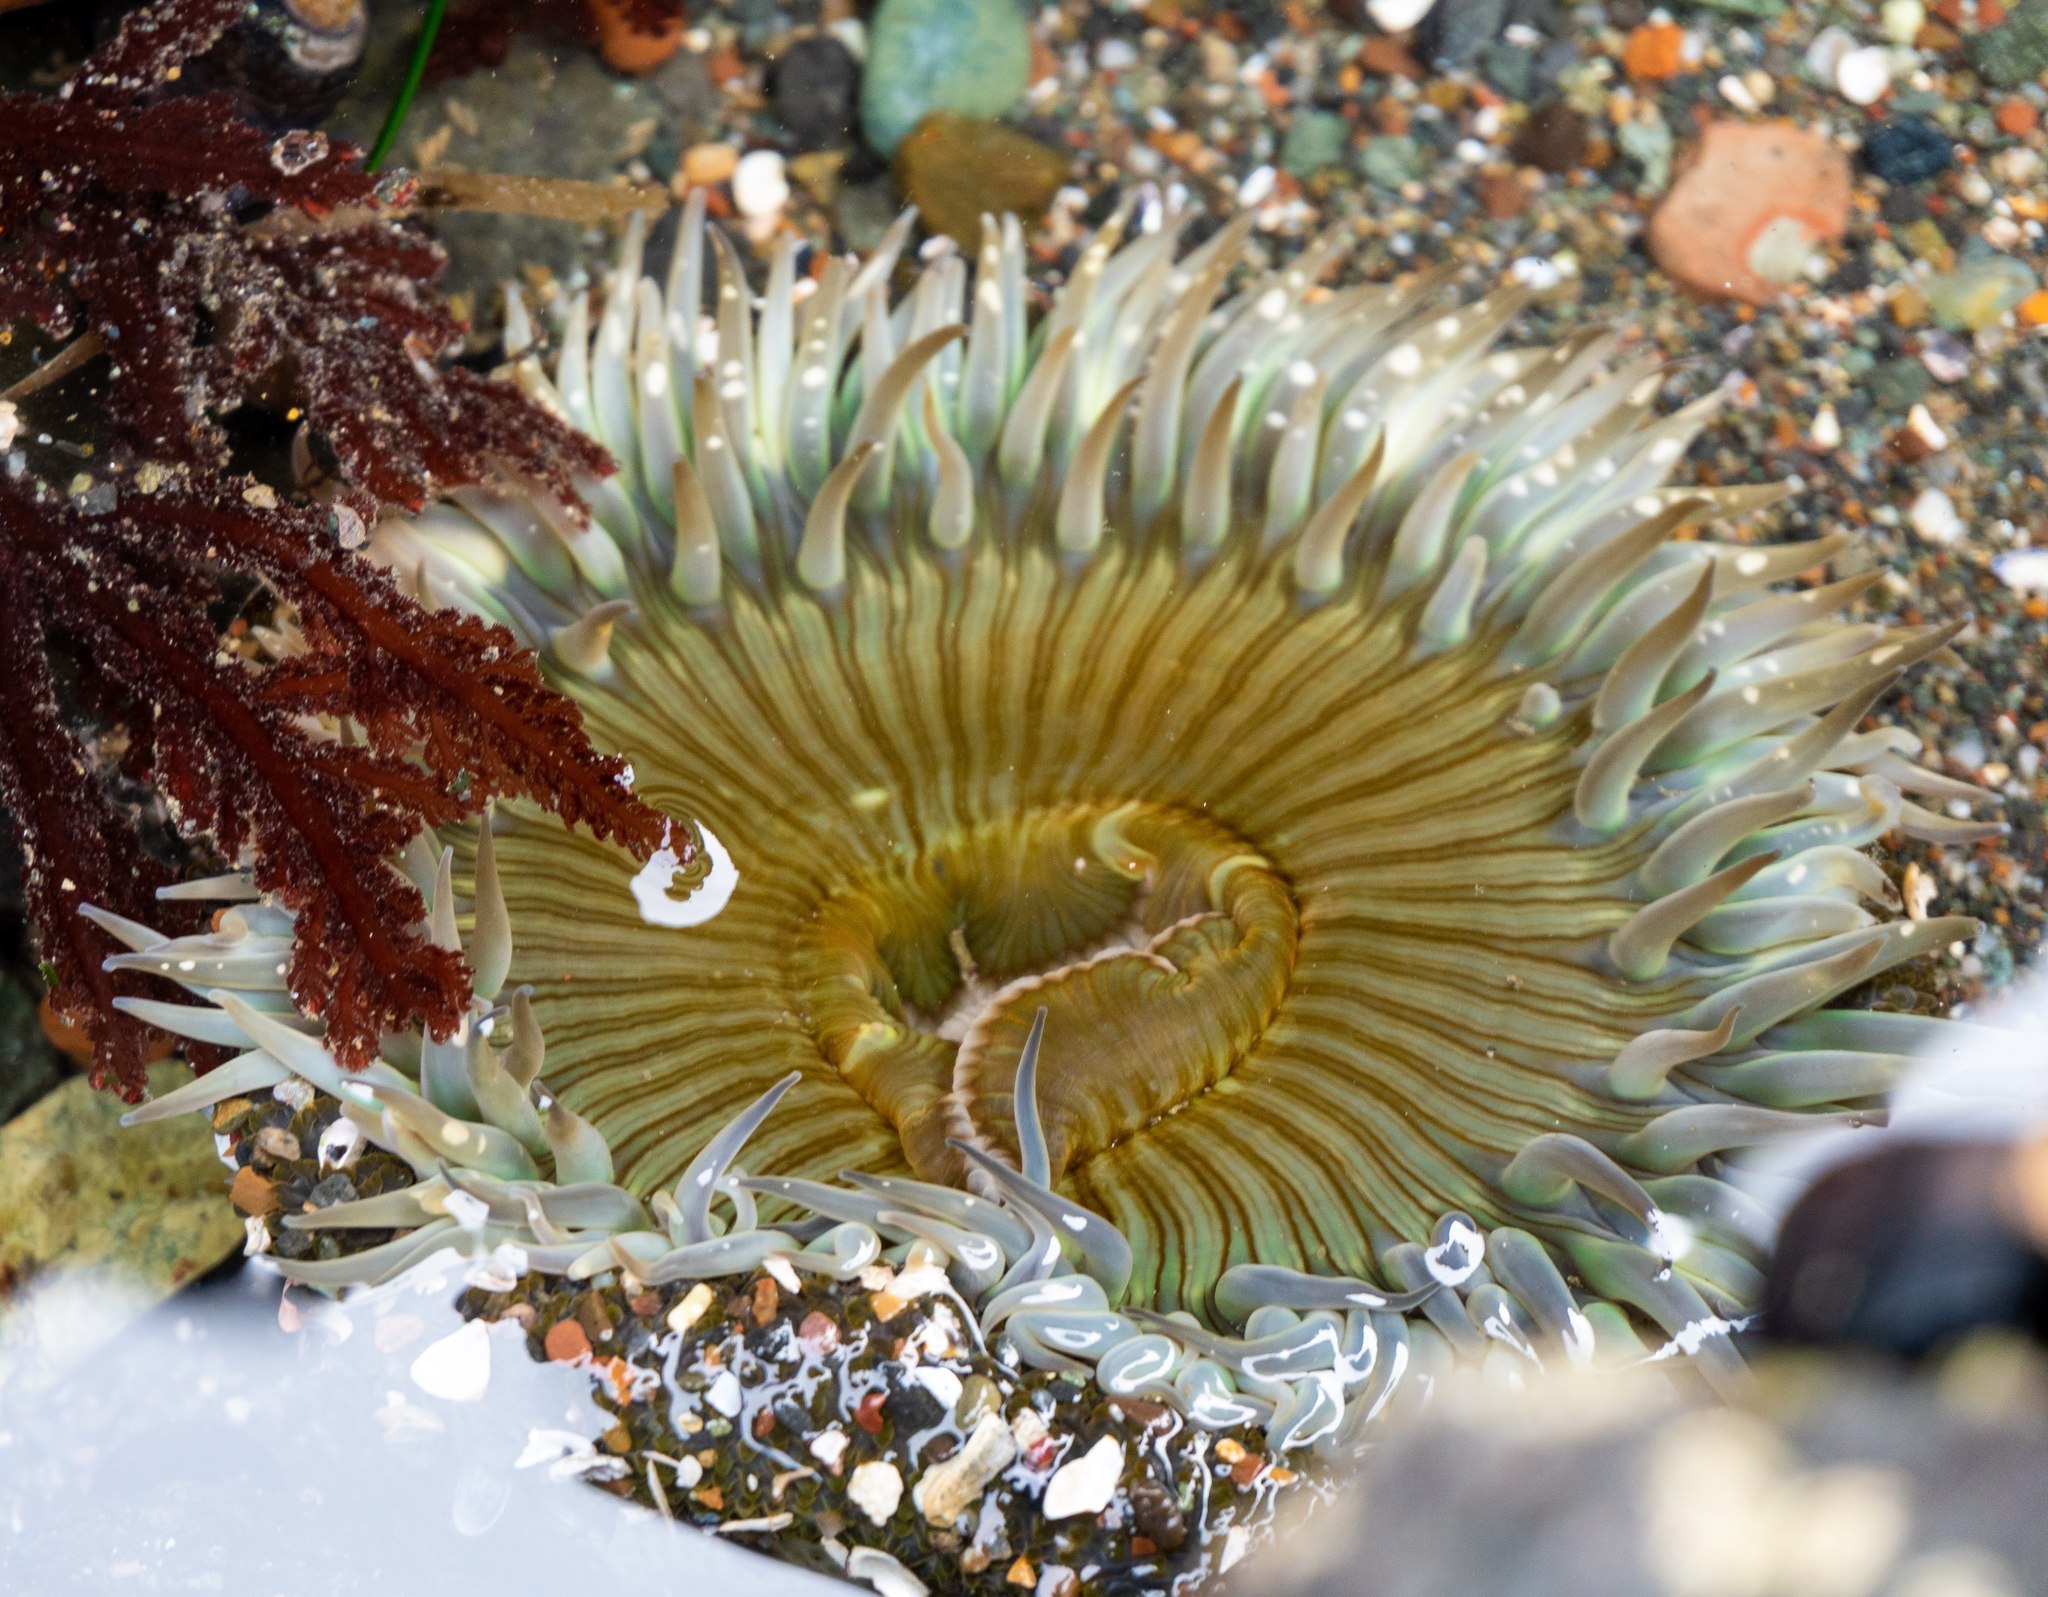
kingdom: Animalia
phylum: Cnidaria
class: Anthozoa
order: Actiniaria
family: Actiniidae
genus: Anthopleura
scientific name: Anthopleura sola
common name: Sun anemone
